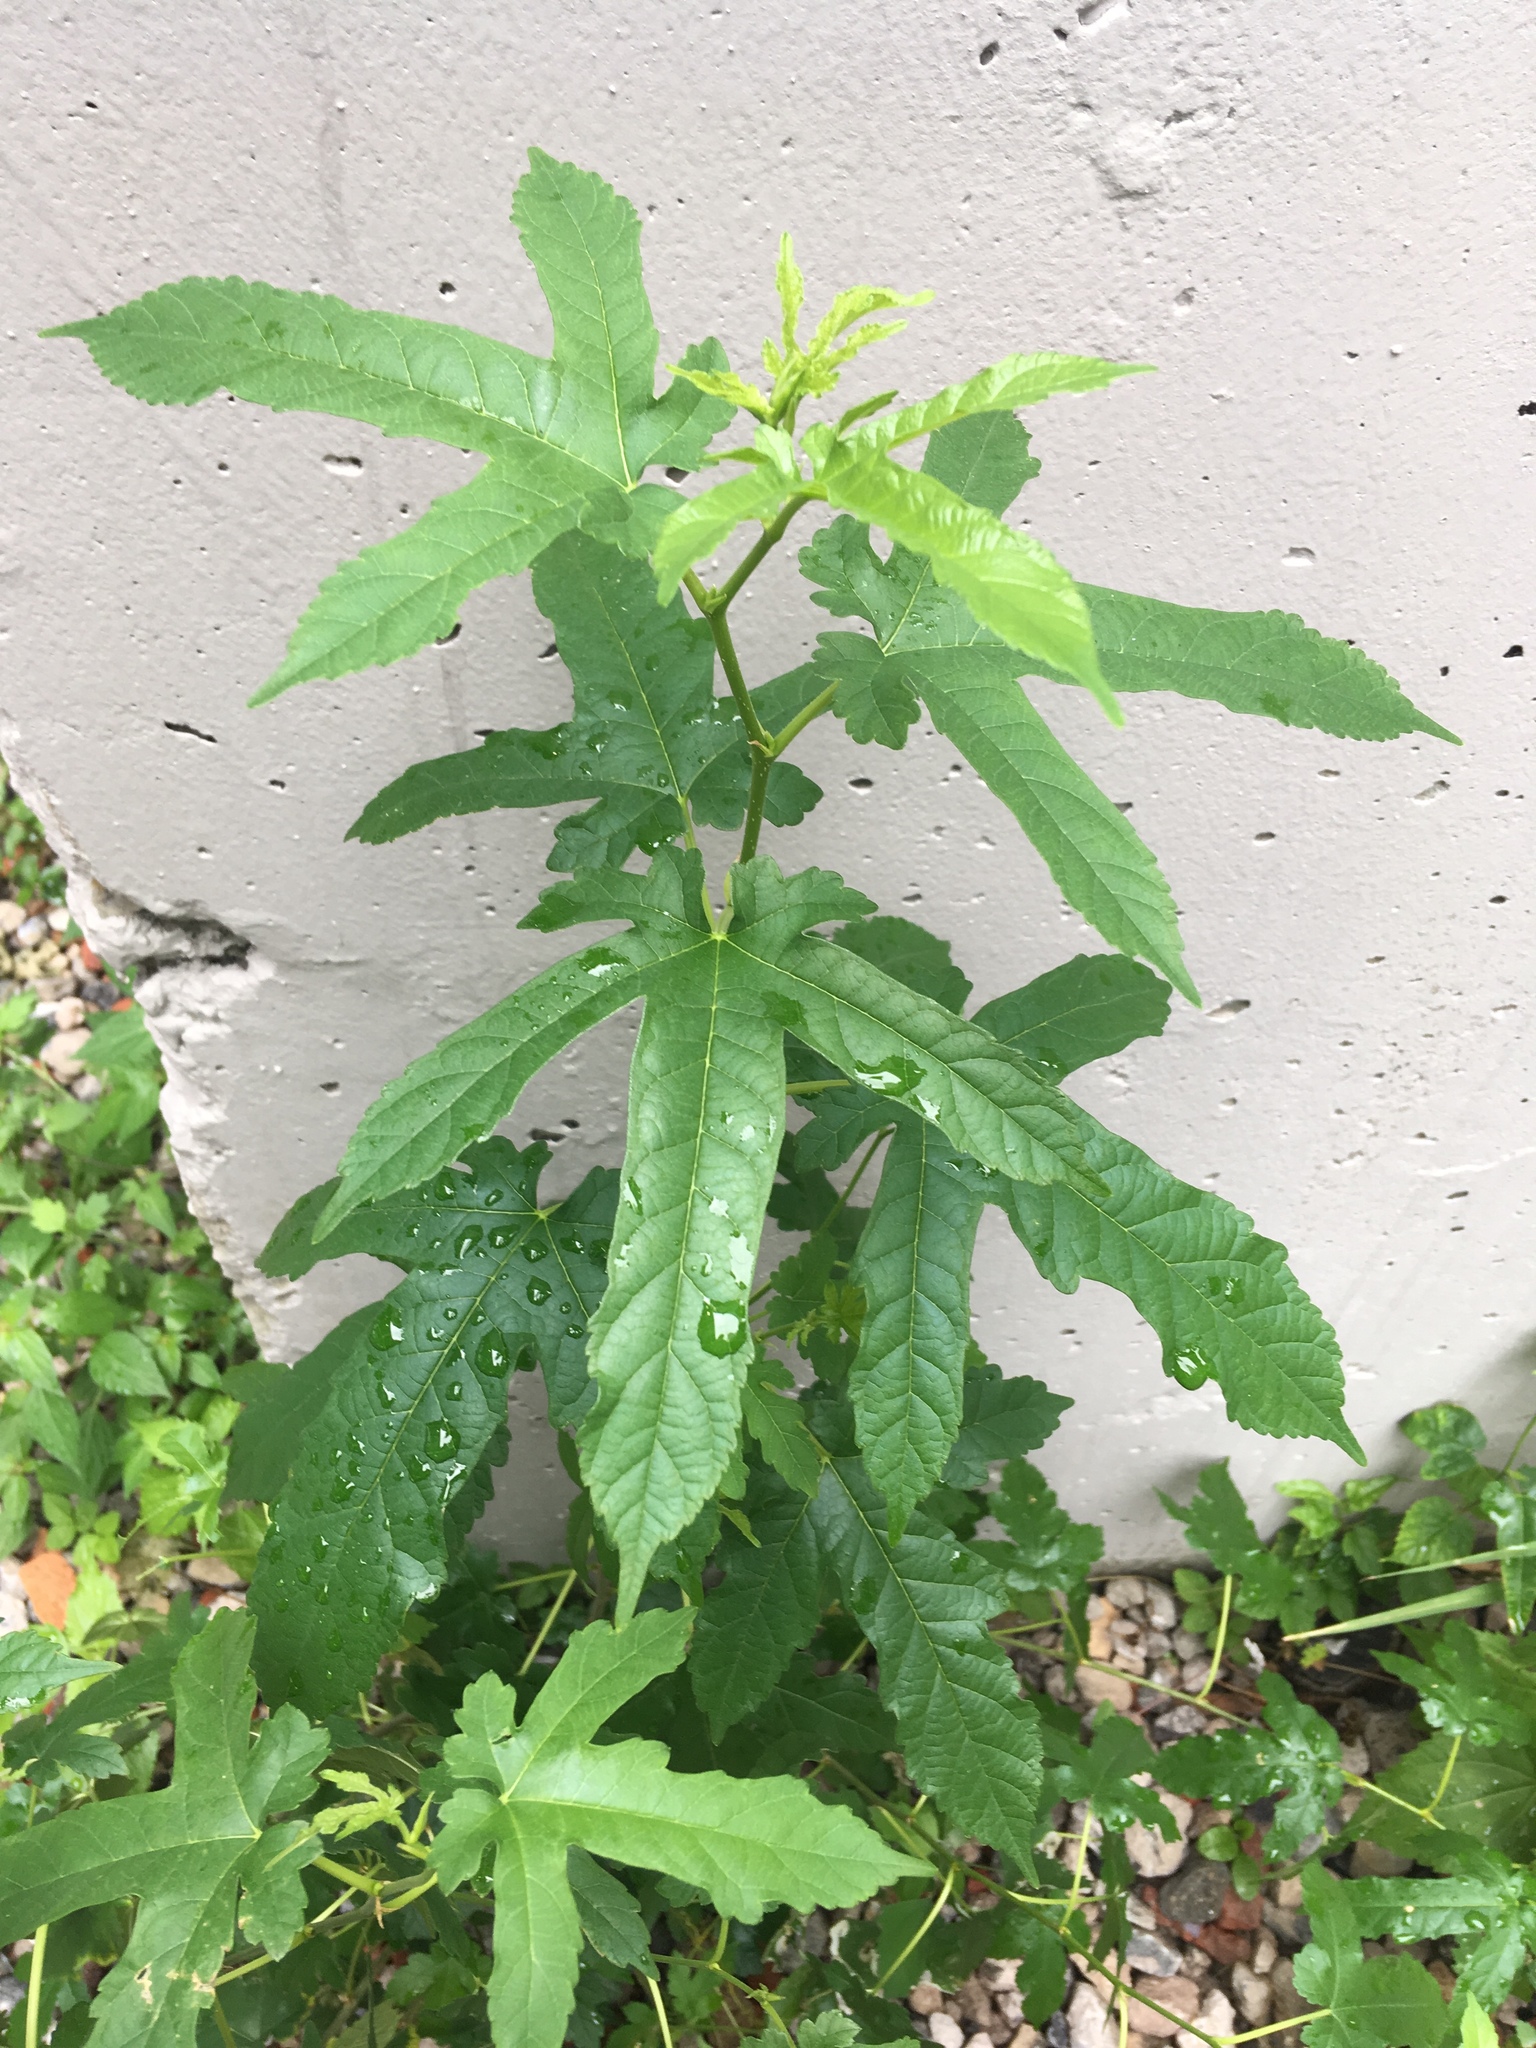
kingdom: Plantae
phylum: Tracheophyta
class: Magnoliopsida
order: Rosales
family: Moraceae
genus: Morus
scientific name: Morus alba
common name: White mulberry
